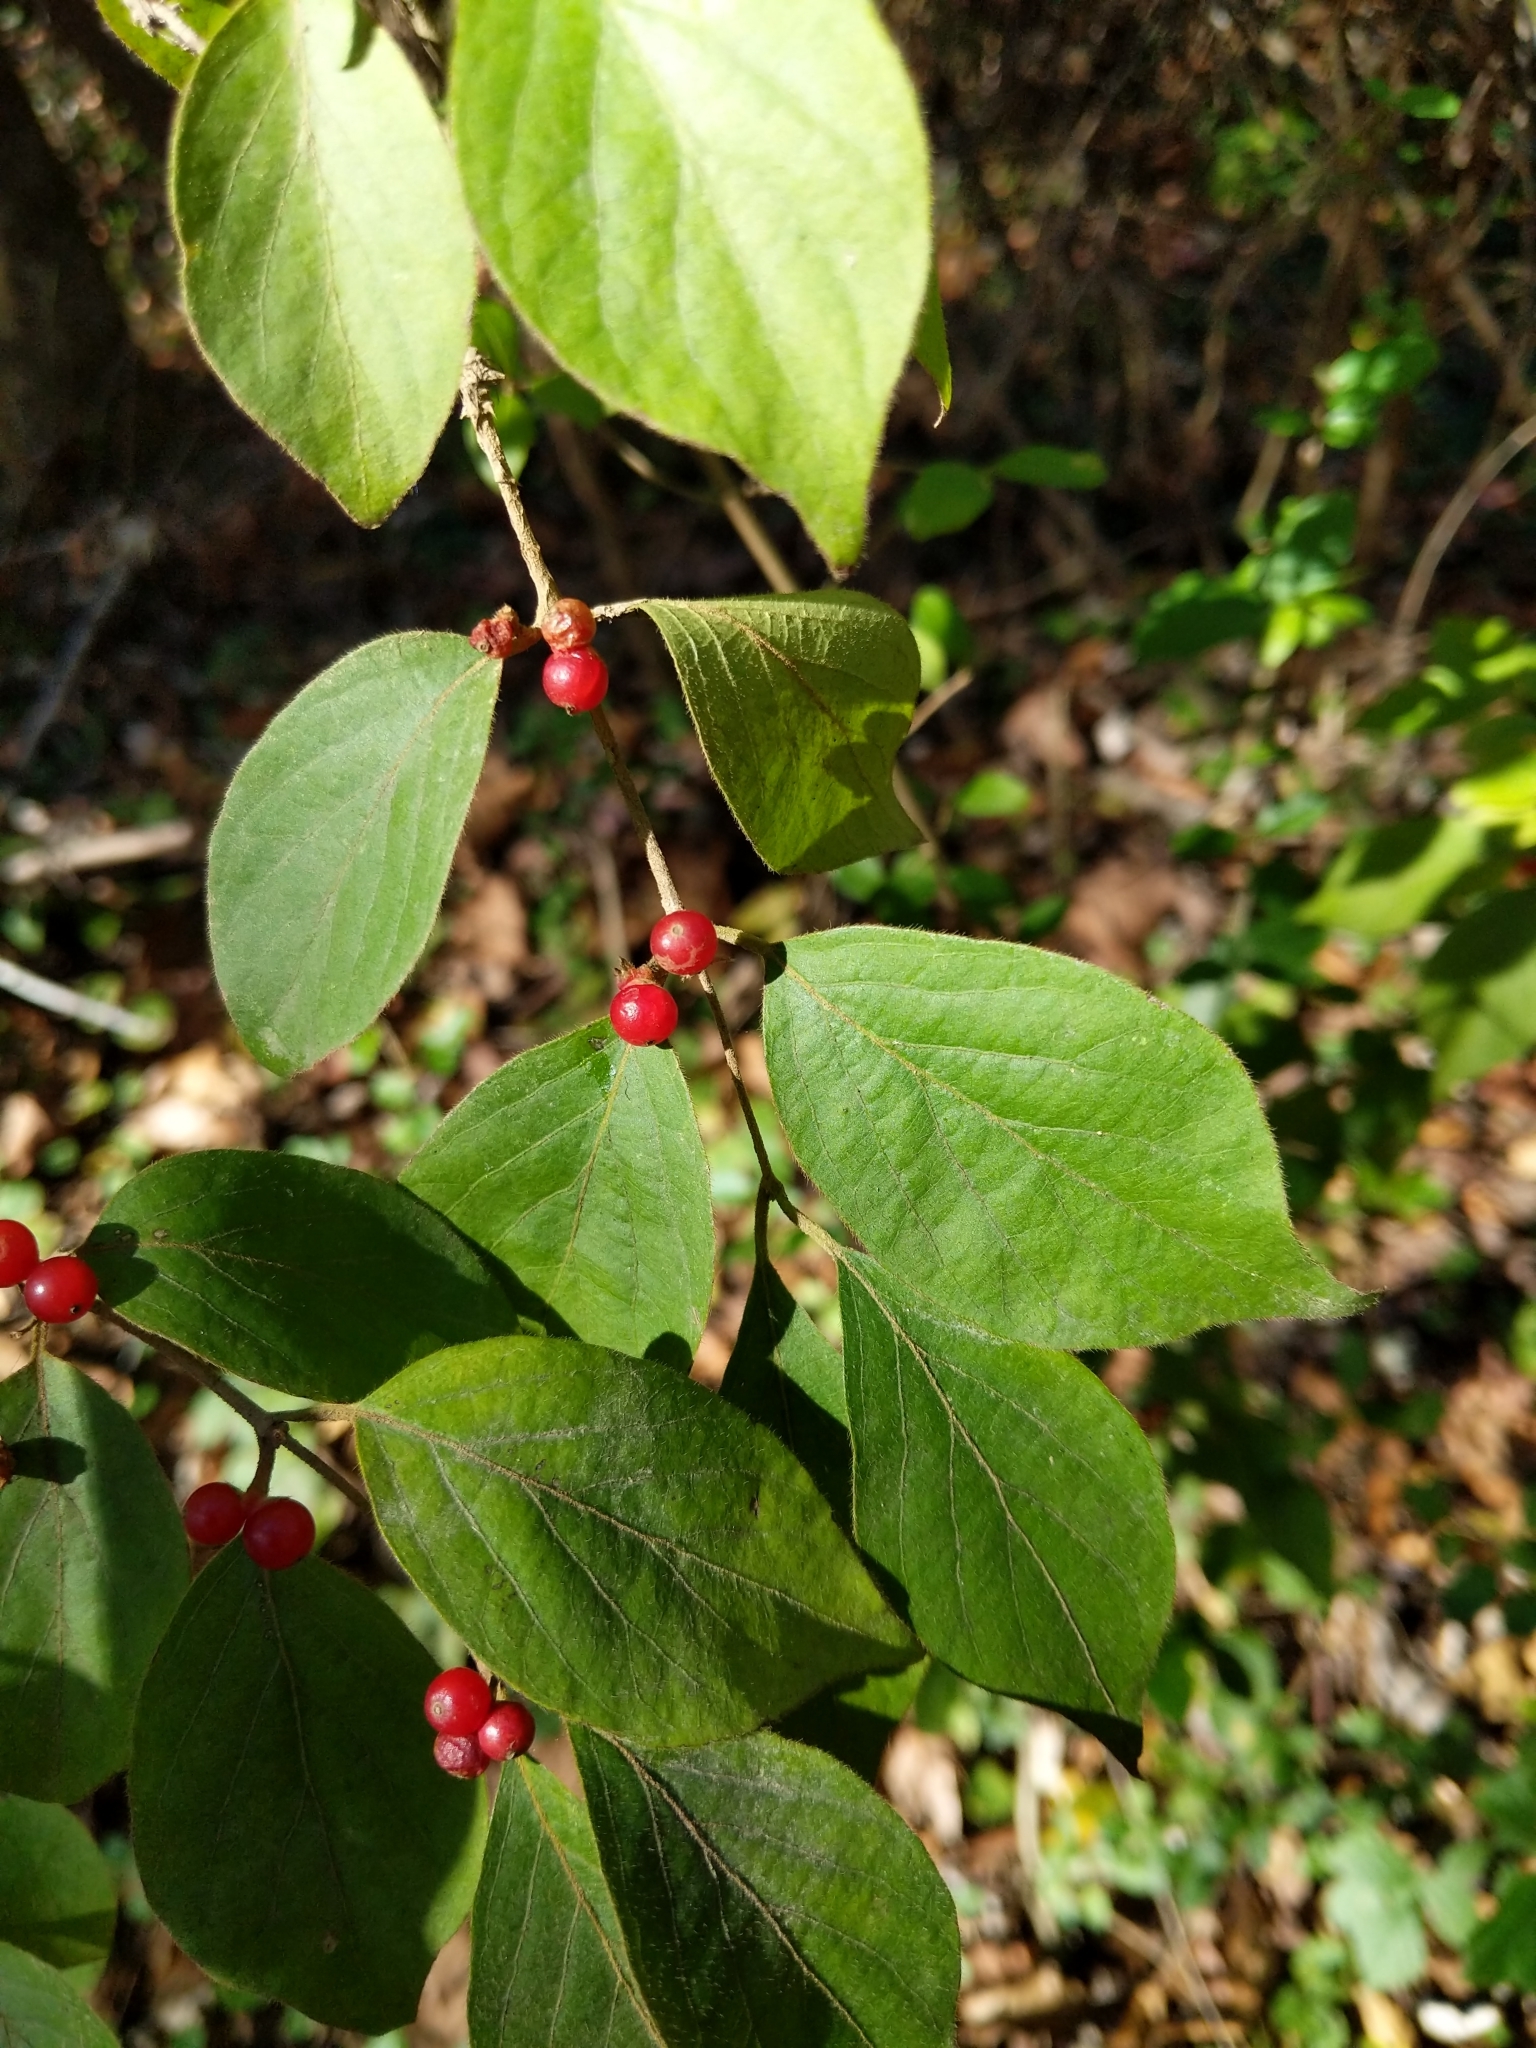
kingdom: Plantae
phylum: Tracheophyta
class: Magnoliopsida
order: Dipsacales
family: Caprifoliaceae
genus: Lonicera
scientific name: Lonicera maackii
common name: Amur honeysuckle
